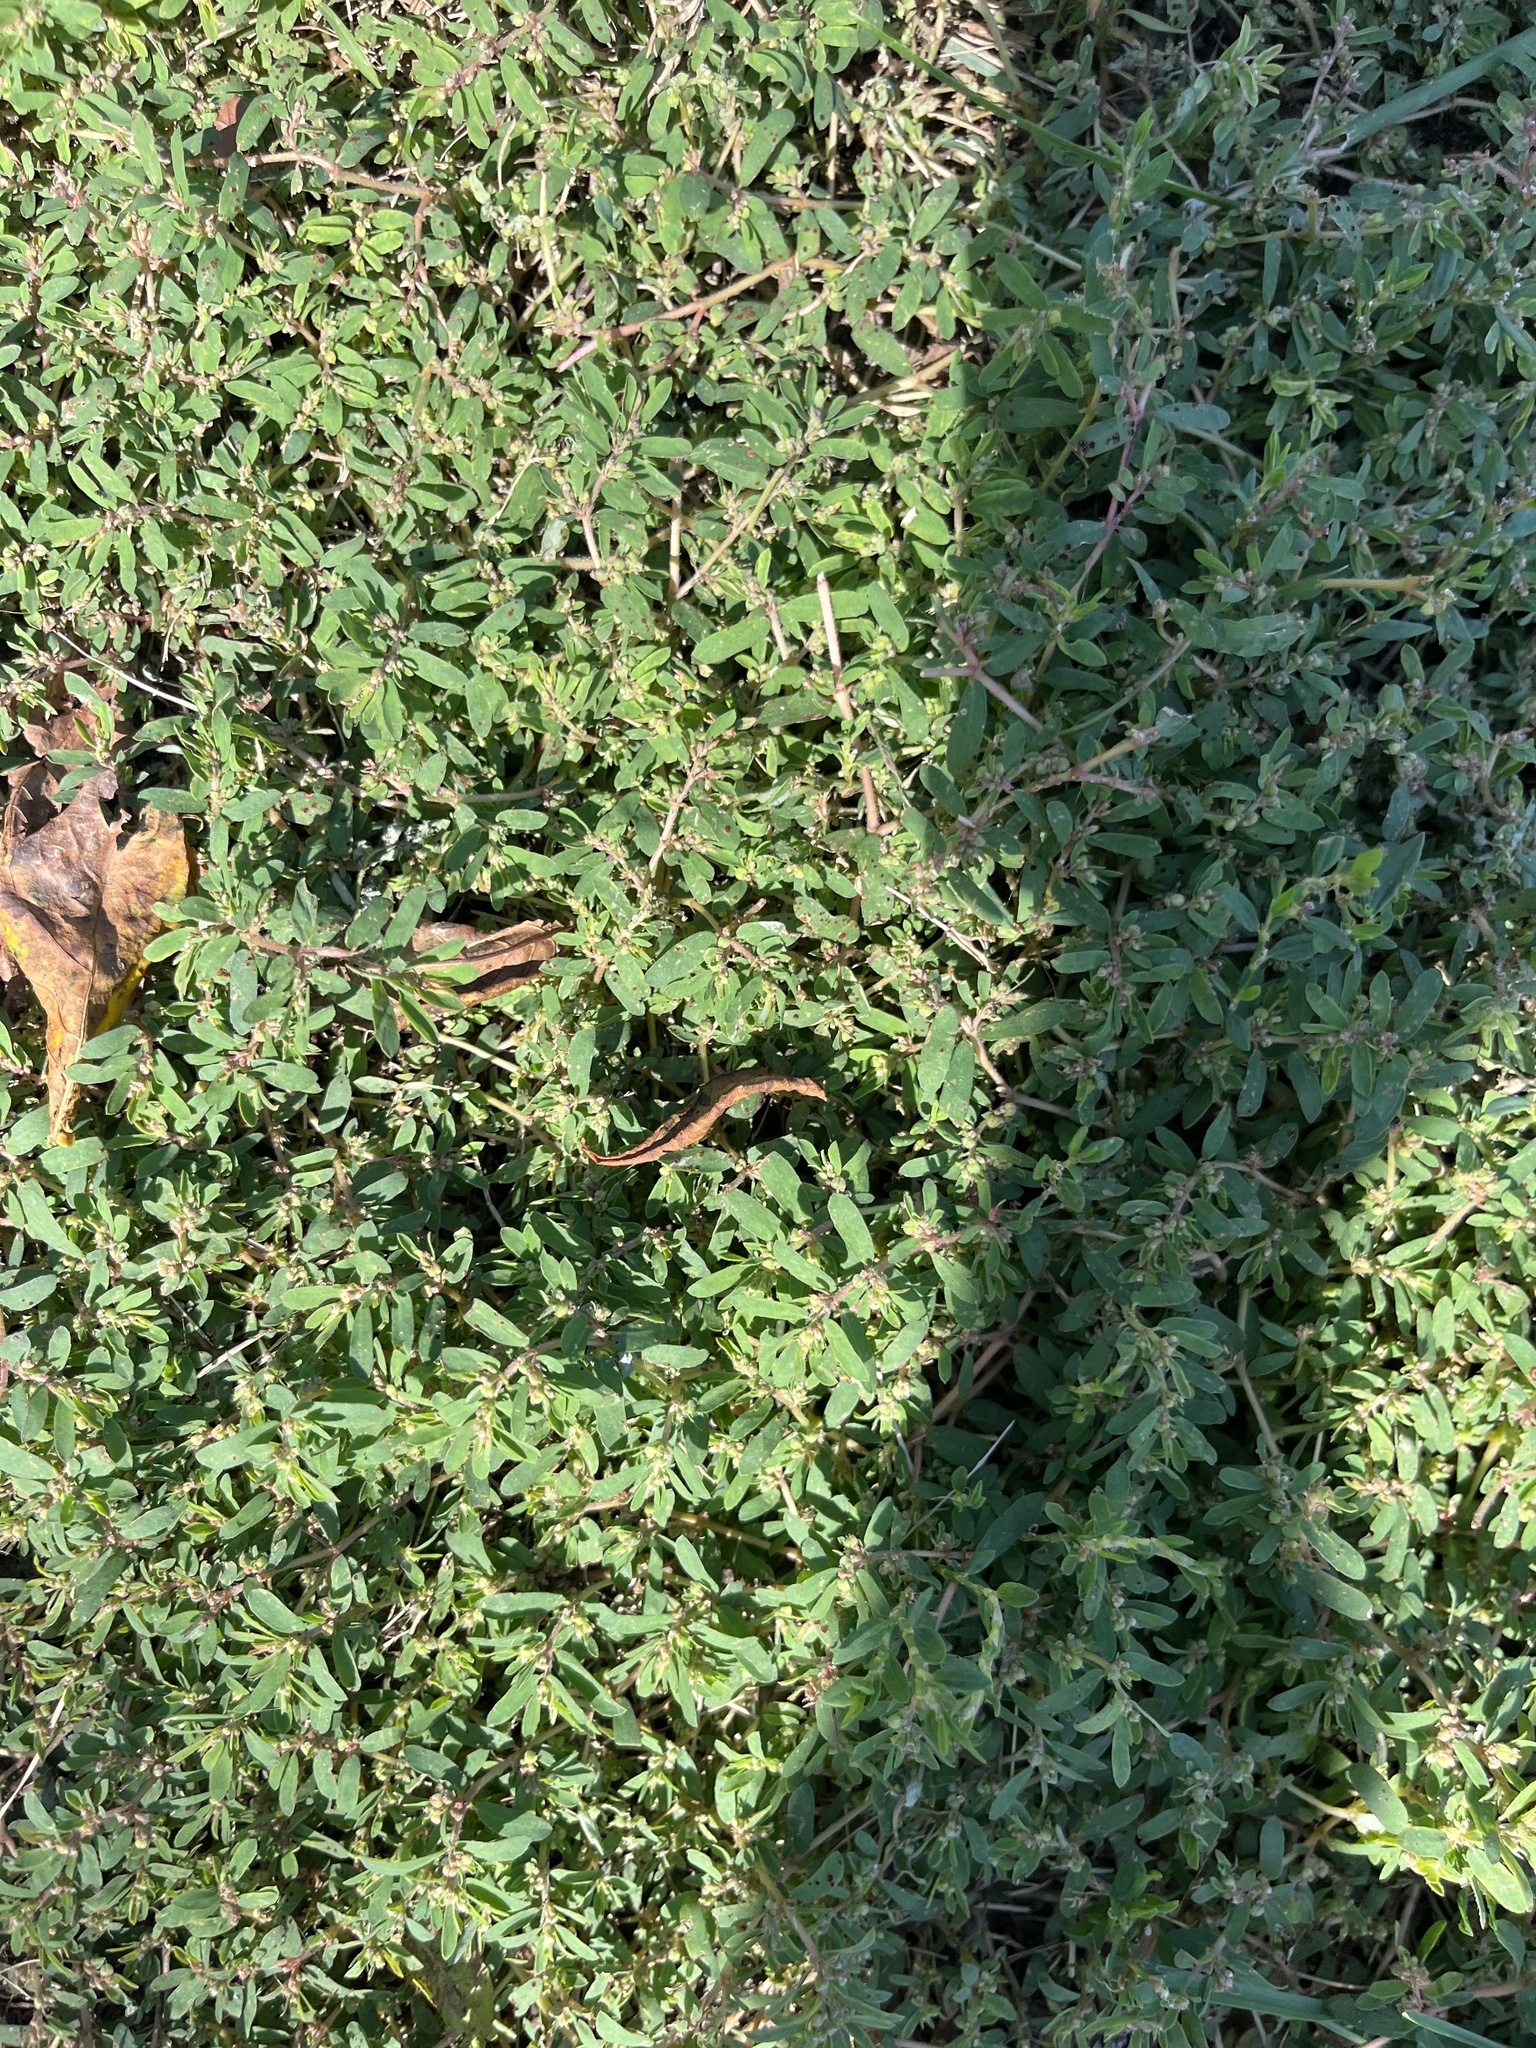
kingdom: Plantae
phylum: Tracheophyta
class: Magnoliopsida
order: Malpighiales
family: Euphorbiaceae
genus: Euphorbia
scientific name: Euphorbia maculata
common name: Spotted spurge
